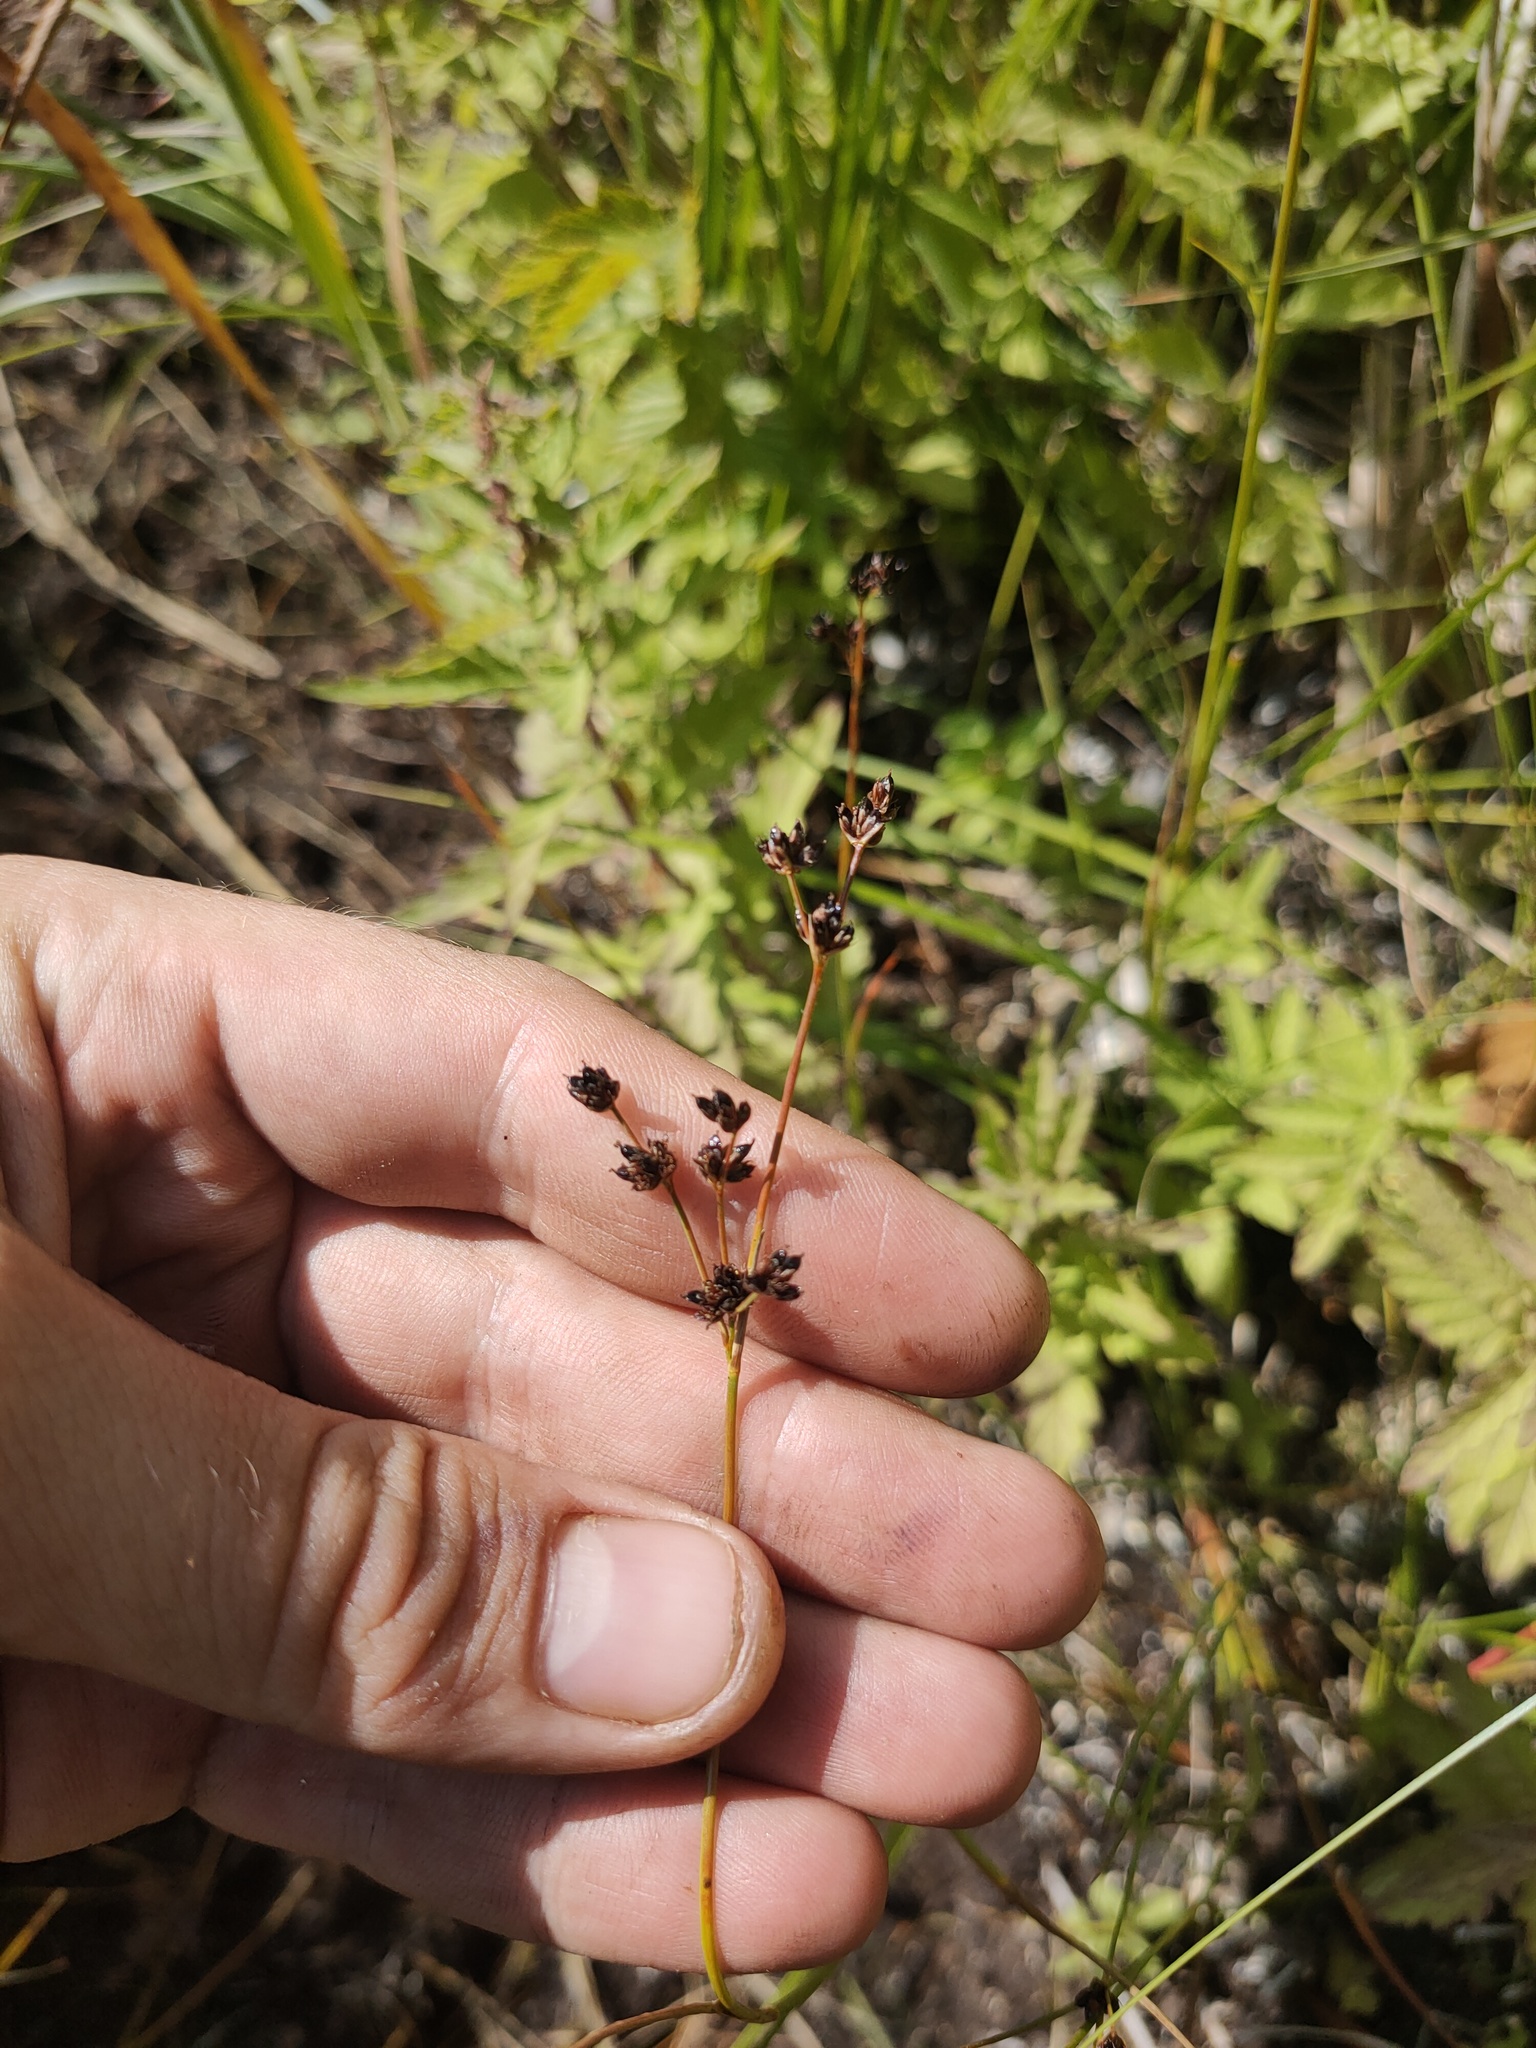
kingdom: Plantae
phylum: Tracheophyta
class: Liliopsida
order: Poales
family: Juncaceae
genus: Juncus
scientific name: Juncus alpinoarticulatus
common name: Alpine rush
